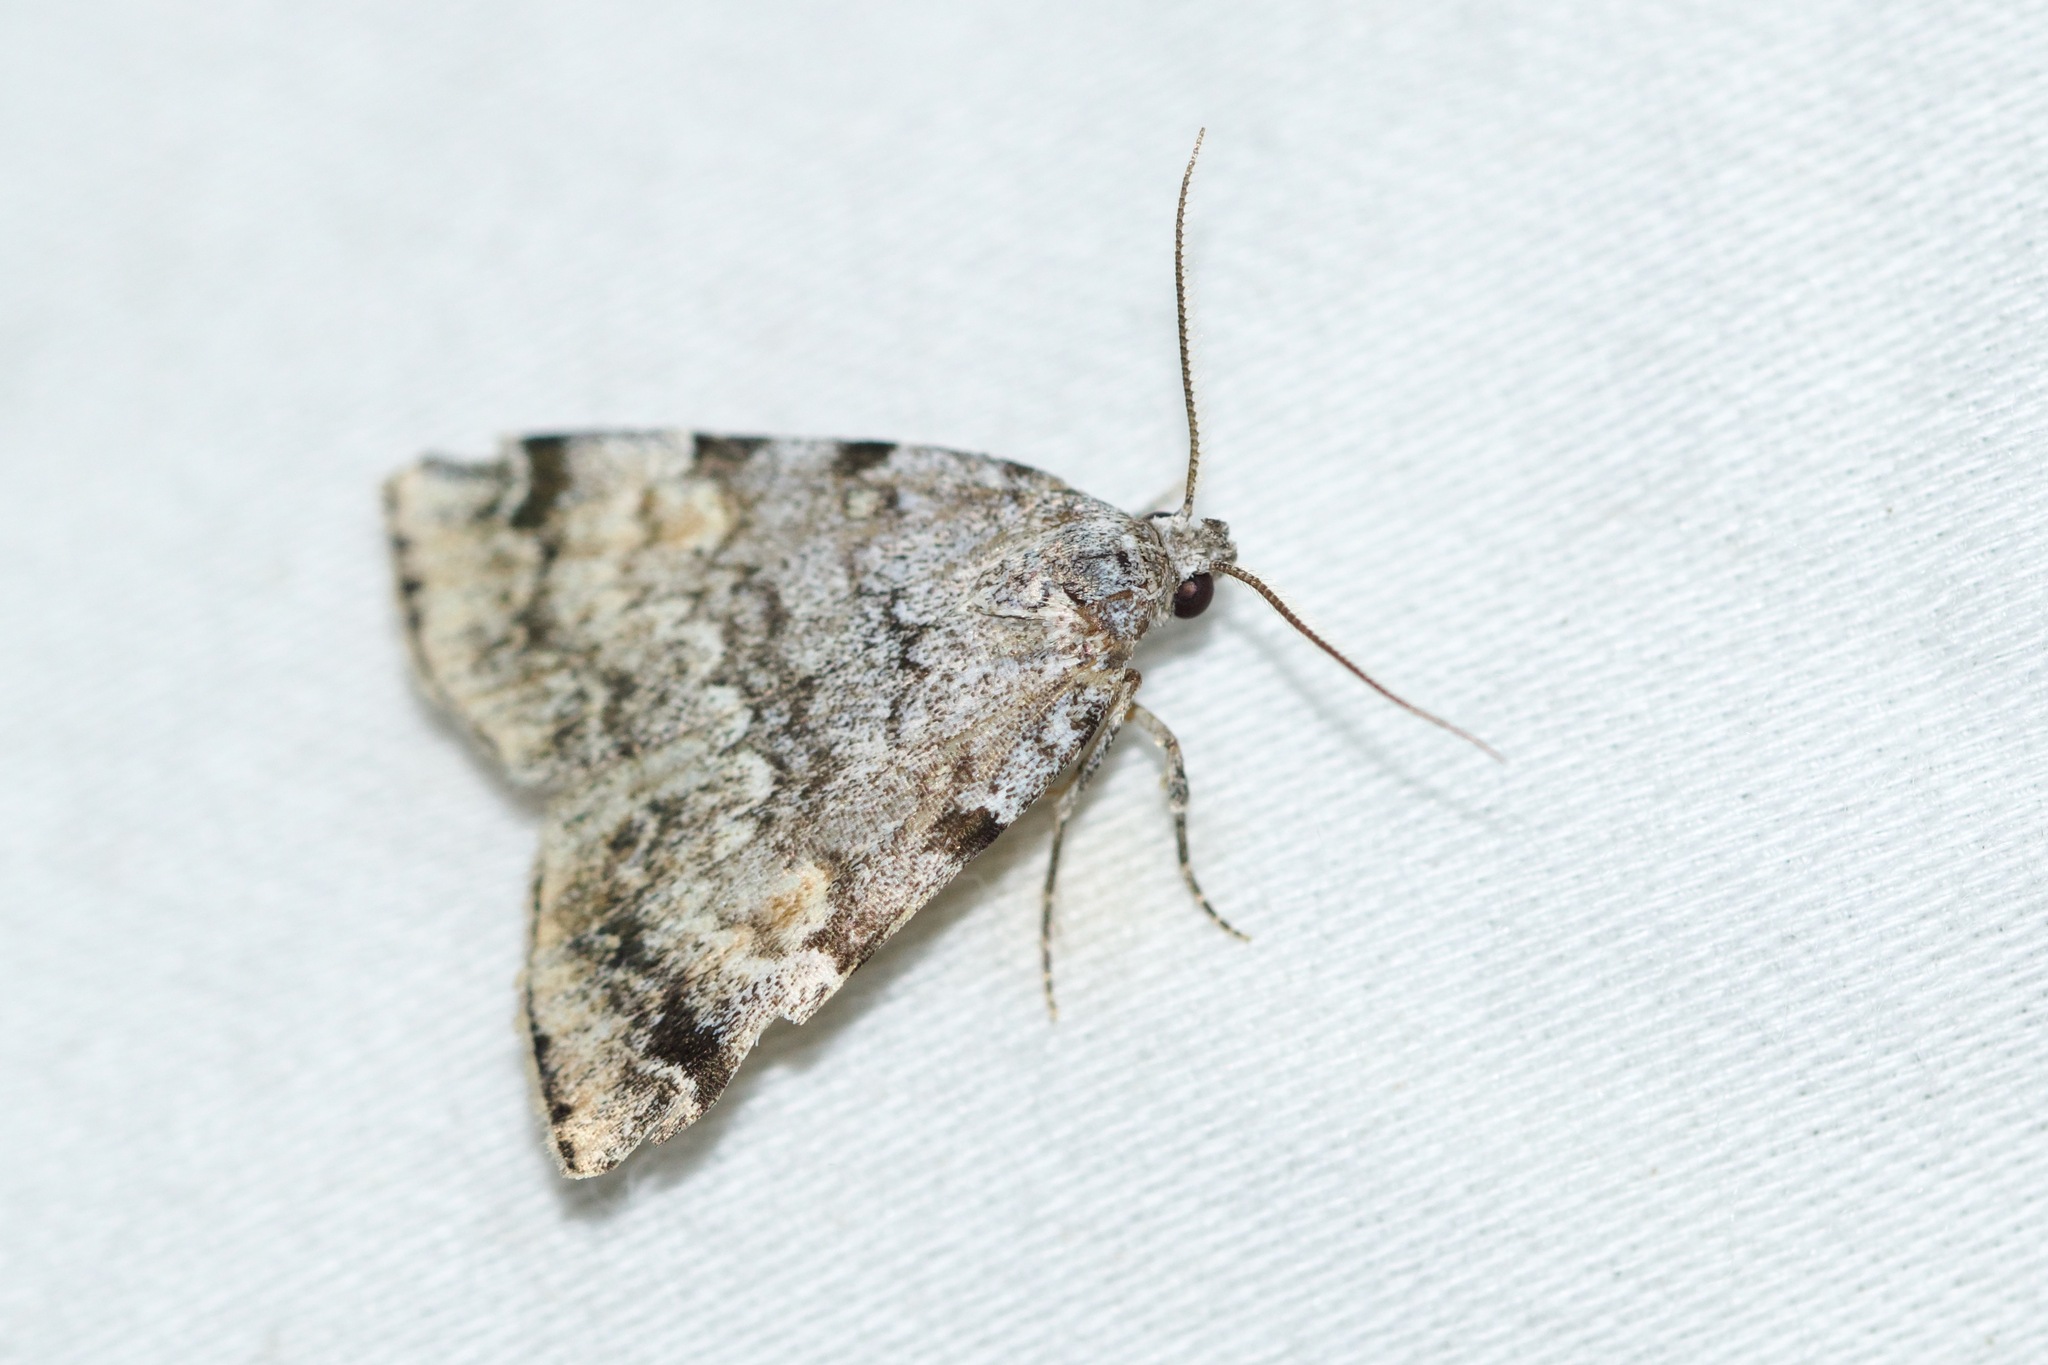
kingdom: Animalia
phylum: Arthropoda
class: Insecta
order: Lepidoptera
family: Erebidae
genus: Idia
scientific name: Idia americalis
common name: American idia moth
